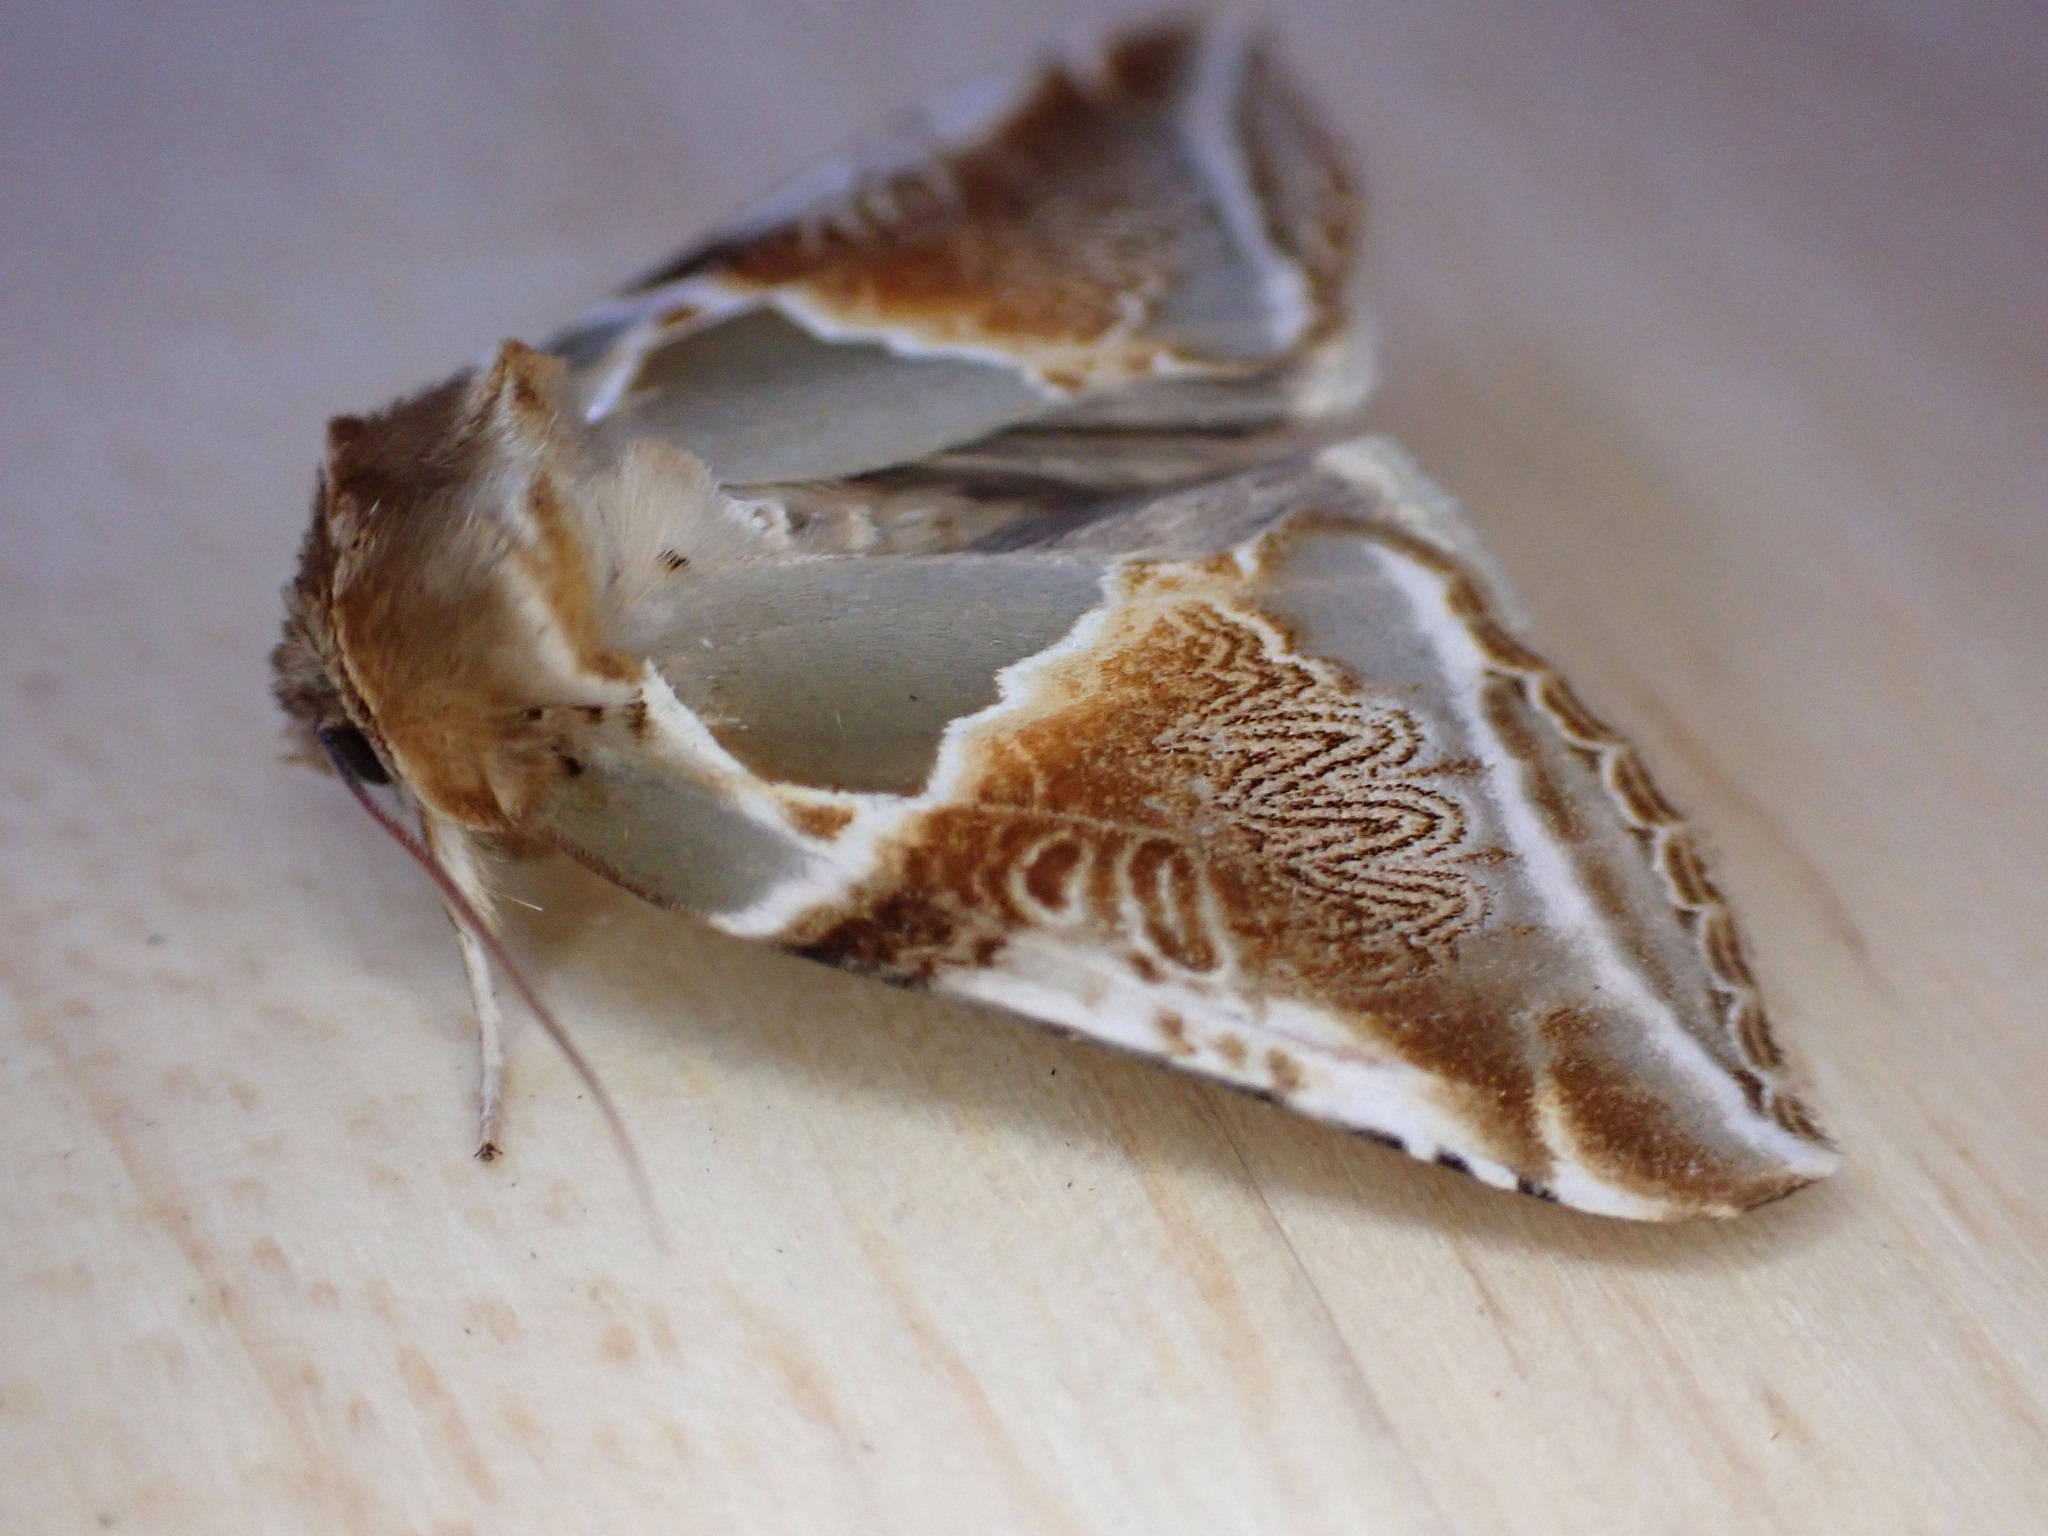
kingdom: Animalia
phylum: Arthropoda
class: Insecta
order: Lepidoptera
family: Drepanidae
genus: Habrosyne
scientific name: Habrosyne pyritoides
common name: Buff arches
